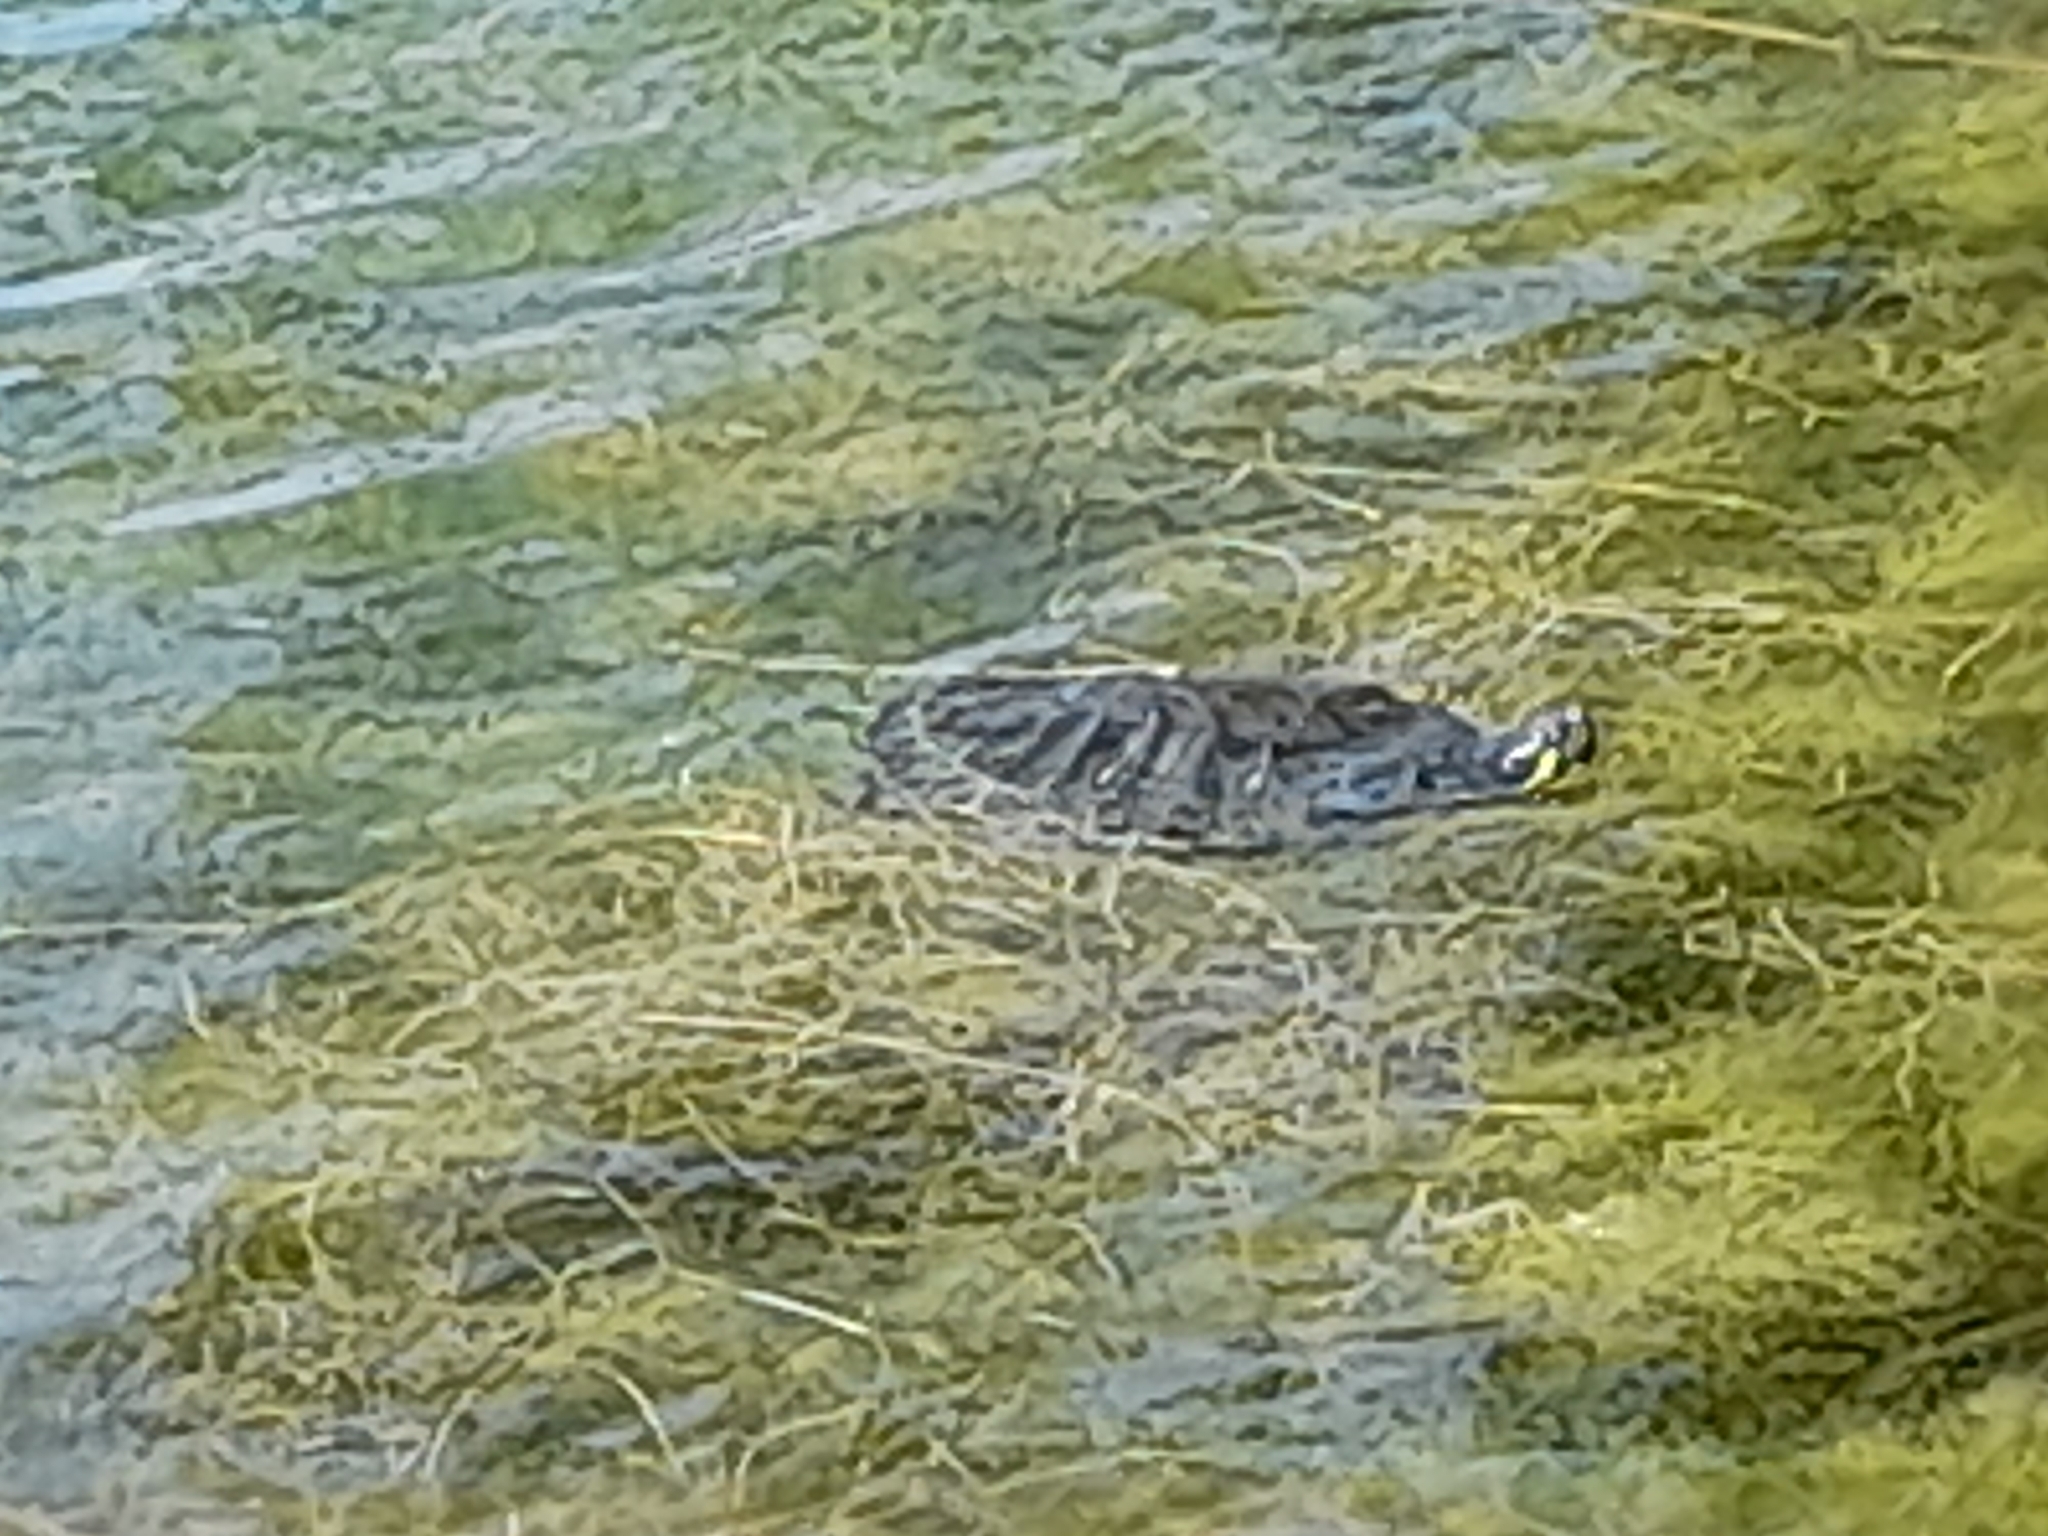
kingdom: Animalia
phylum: Chordata
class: Testudines
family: Emydidae
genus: Trachemys
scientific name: Trachemys scripta
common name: Slider
